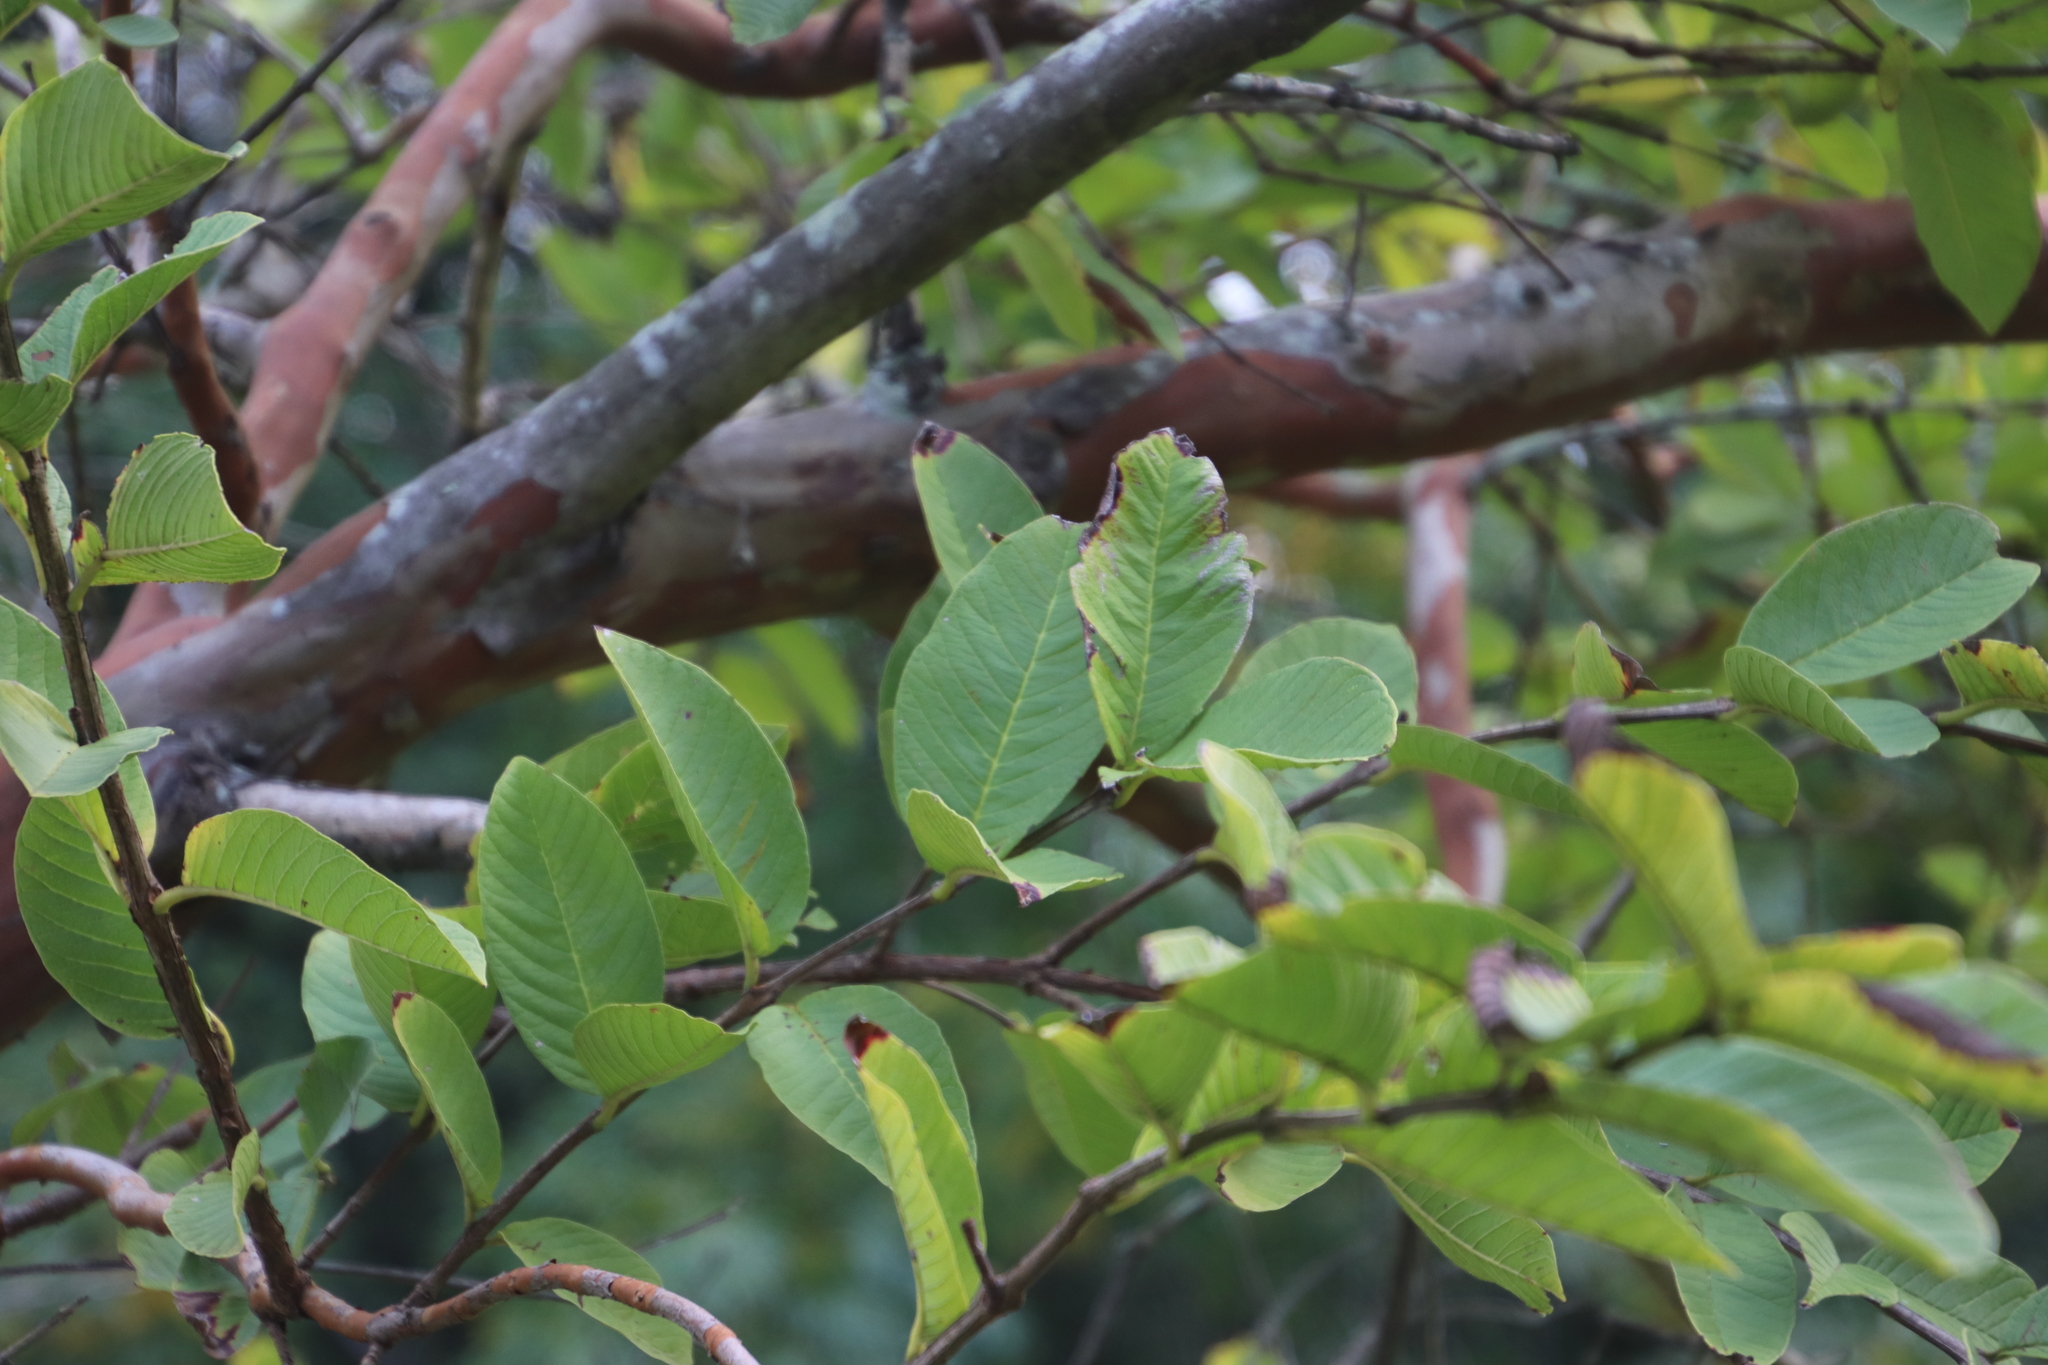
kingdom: Plantae
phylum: Tracheophyta
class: Magnoliopsida
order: Myrtales
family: Myrtaceae
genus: Psidium
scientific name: Psidium guajava
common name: Guava
